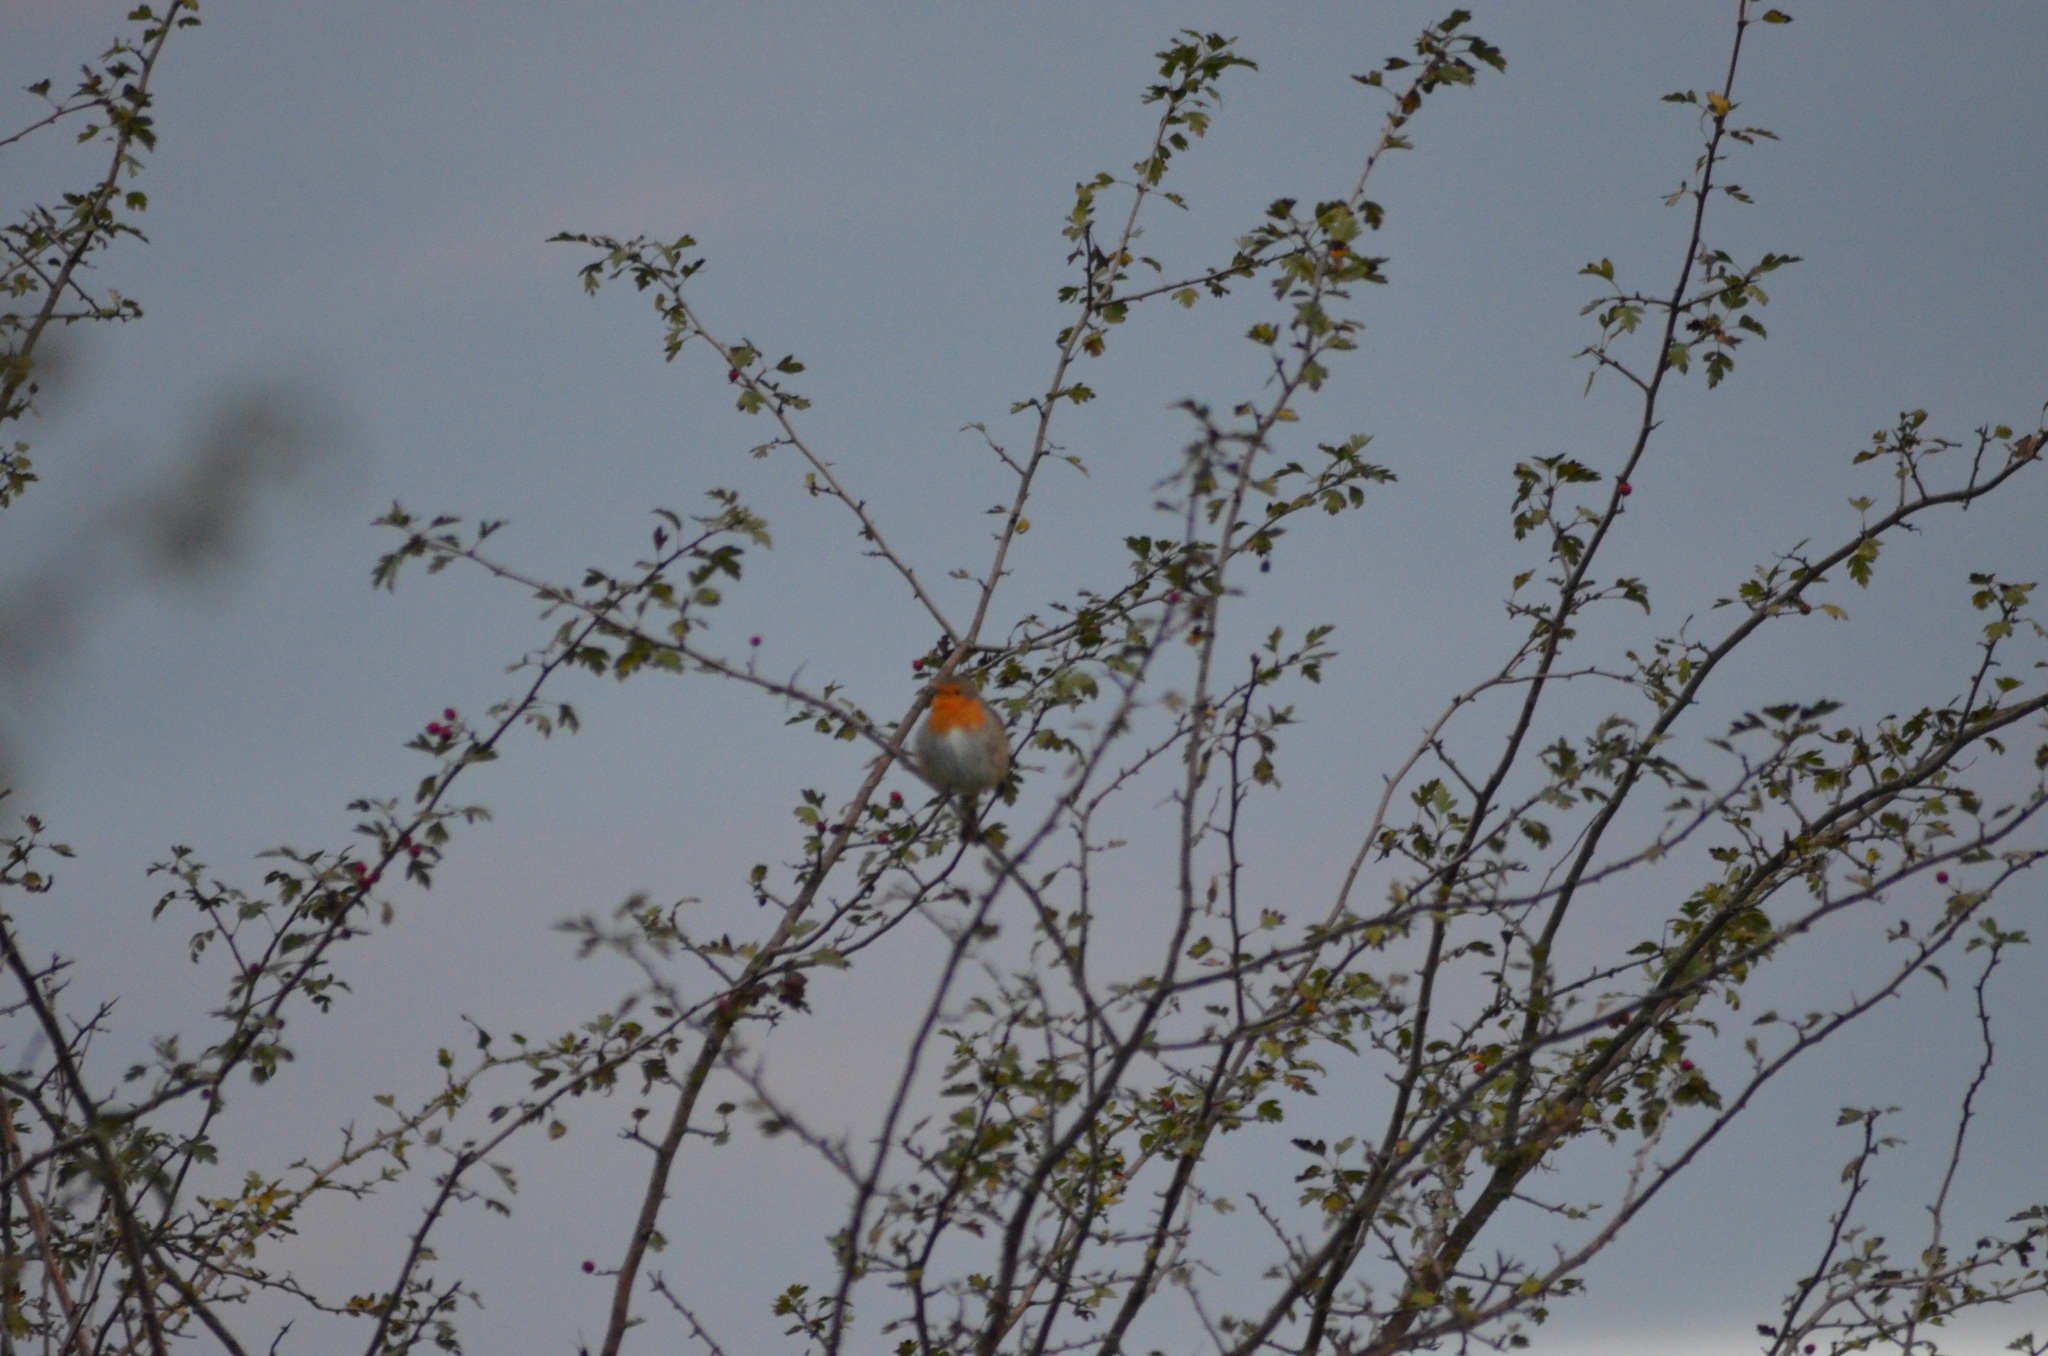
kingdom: Animalia
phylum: Chordata
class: Aves
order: Passeriformes
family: Muscicapidae
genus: Erithacus
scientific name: Erithacus rubecula
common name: European robin
